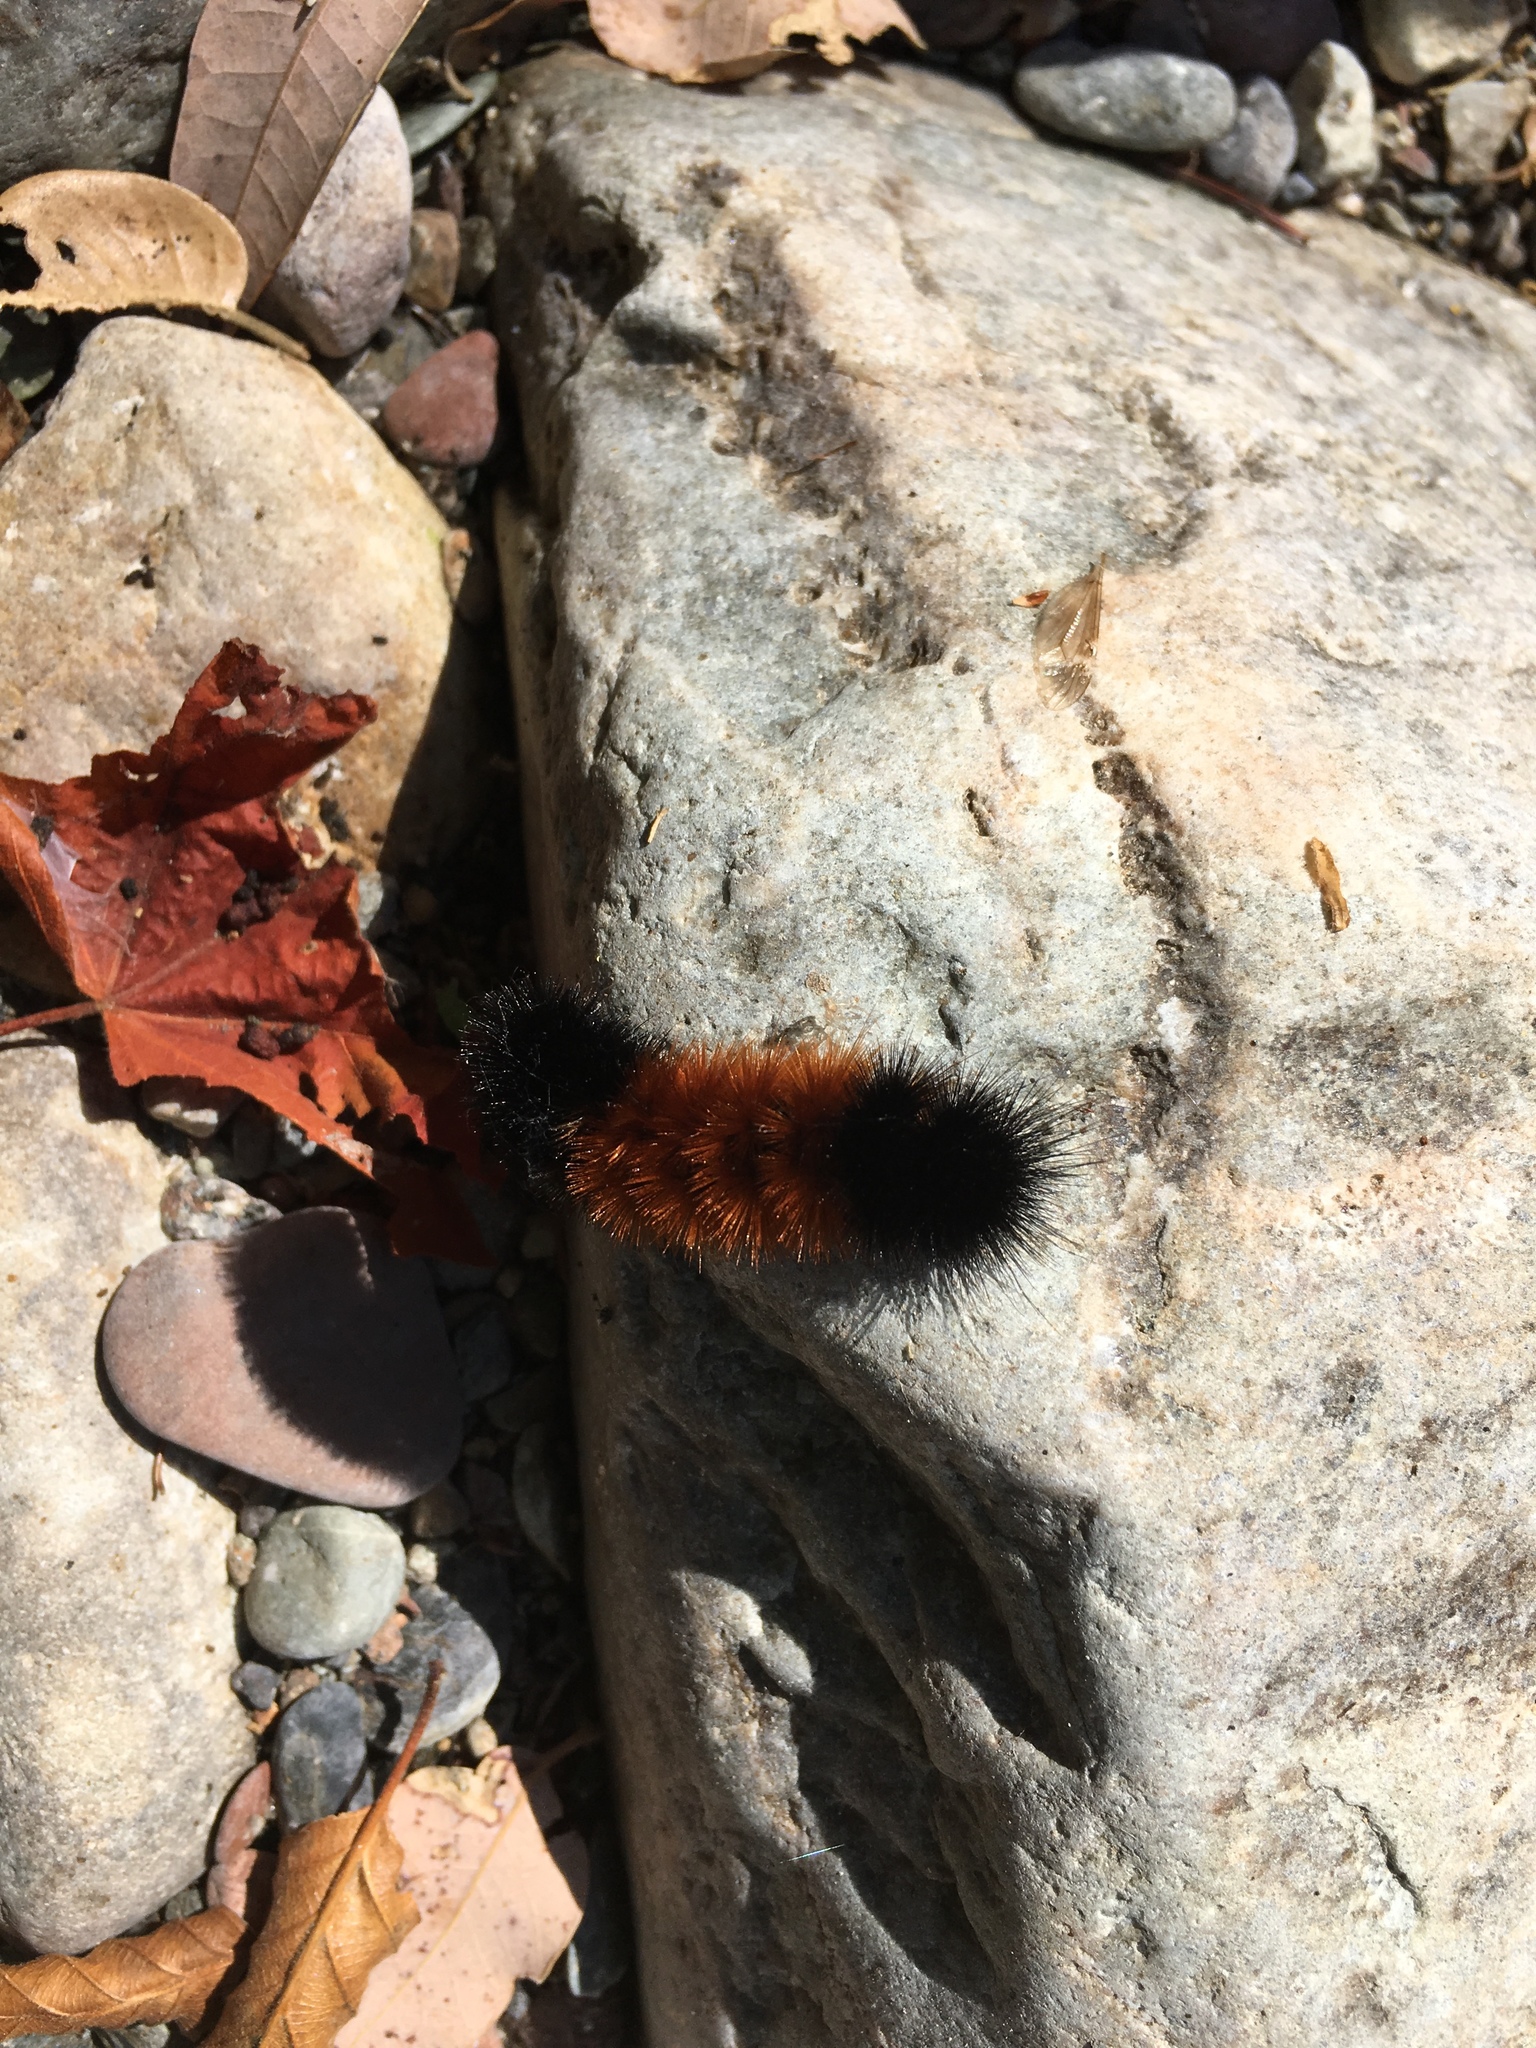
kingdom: Animalia
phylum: Arthropoda
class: Insecta
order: Lepidoptera
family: Erebidae
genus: Pyrrharctia
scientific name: Pyrrharctia isabella
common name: Isabella tiger moth
